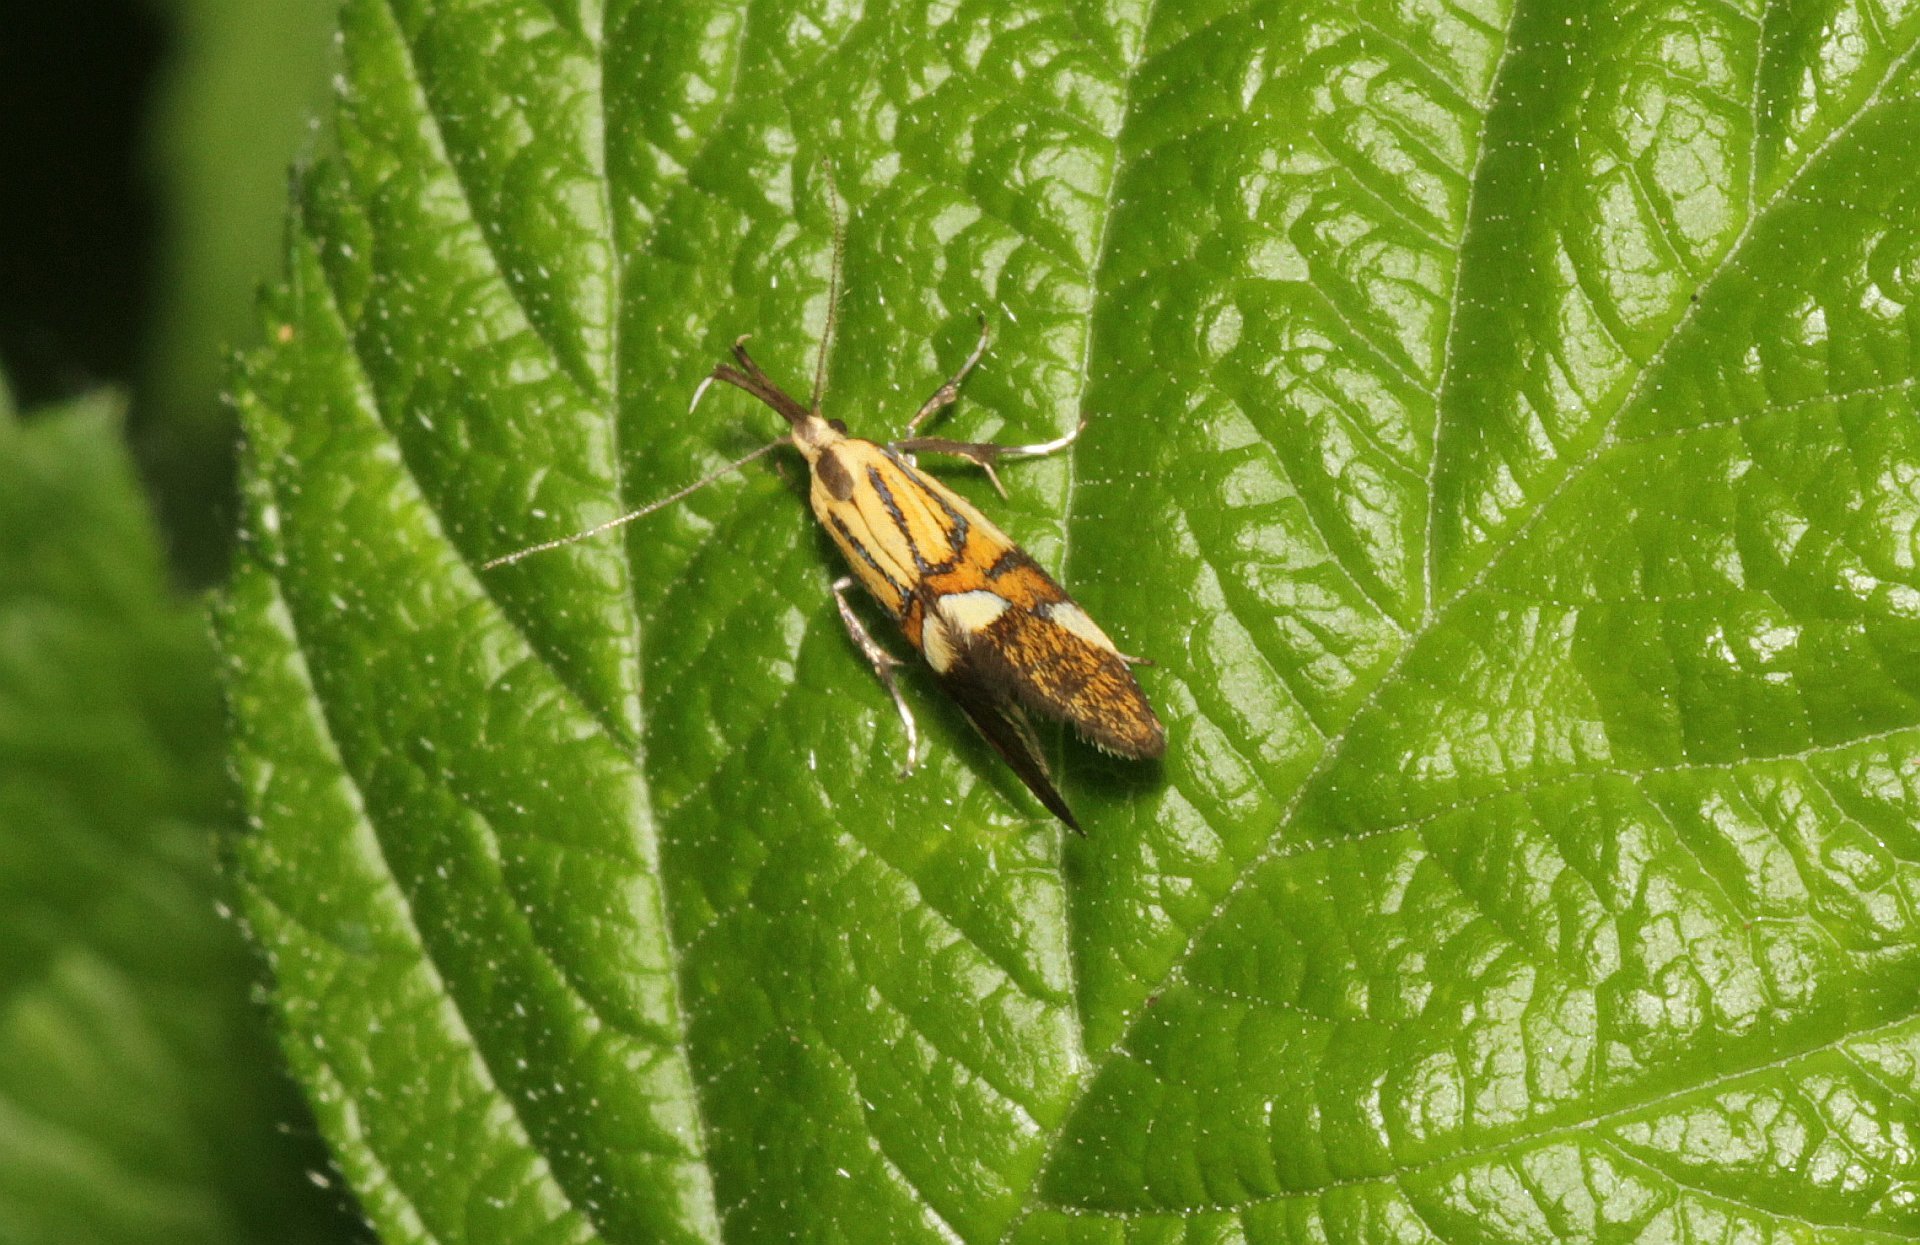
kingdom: Animalia
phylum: Arthropoda
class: Insecta
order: Lepidoptera
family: Oecophoridae
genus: Oecophora
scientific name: Oecophora Alabonia geoffrella
